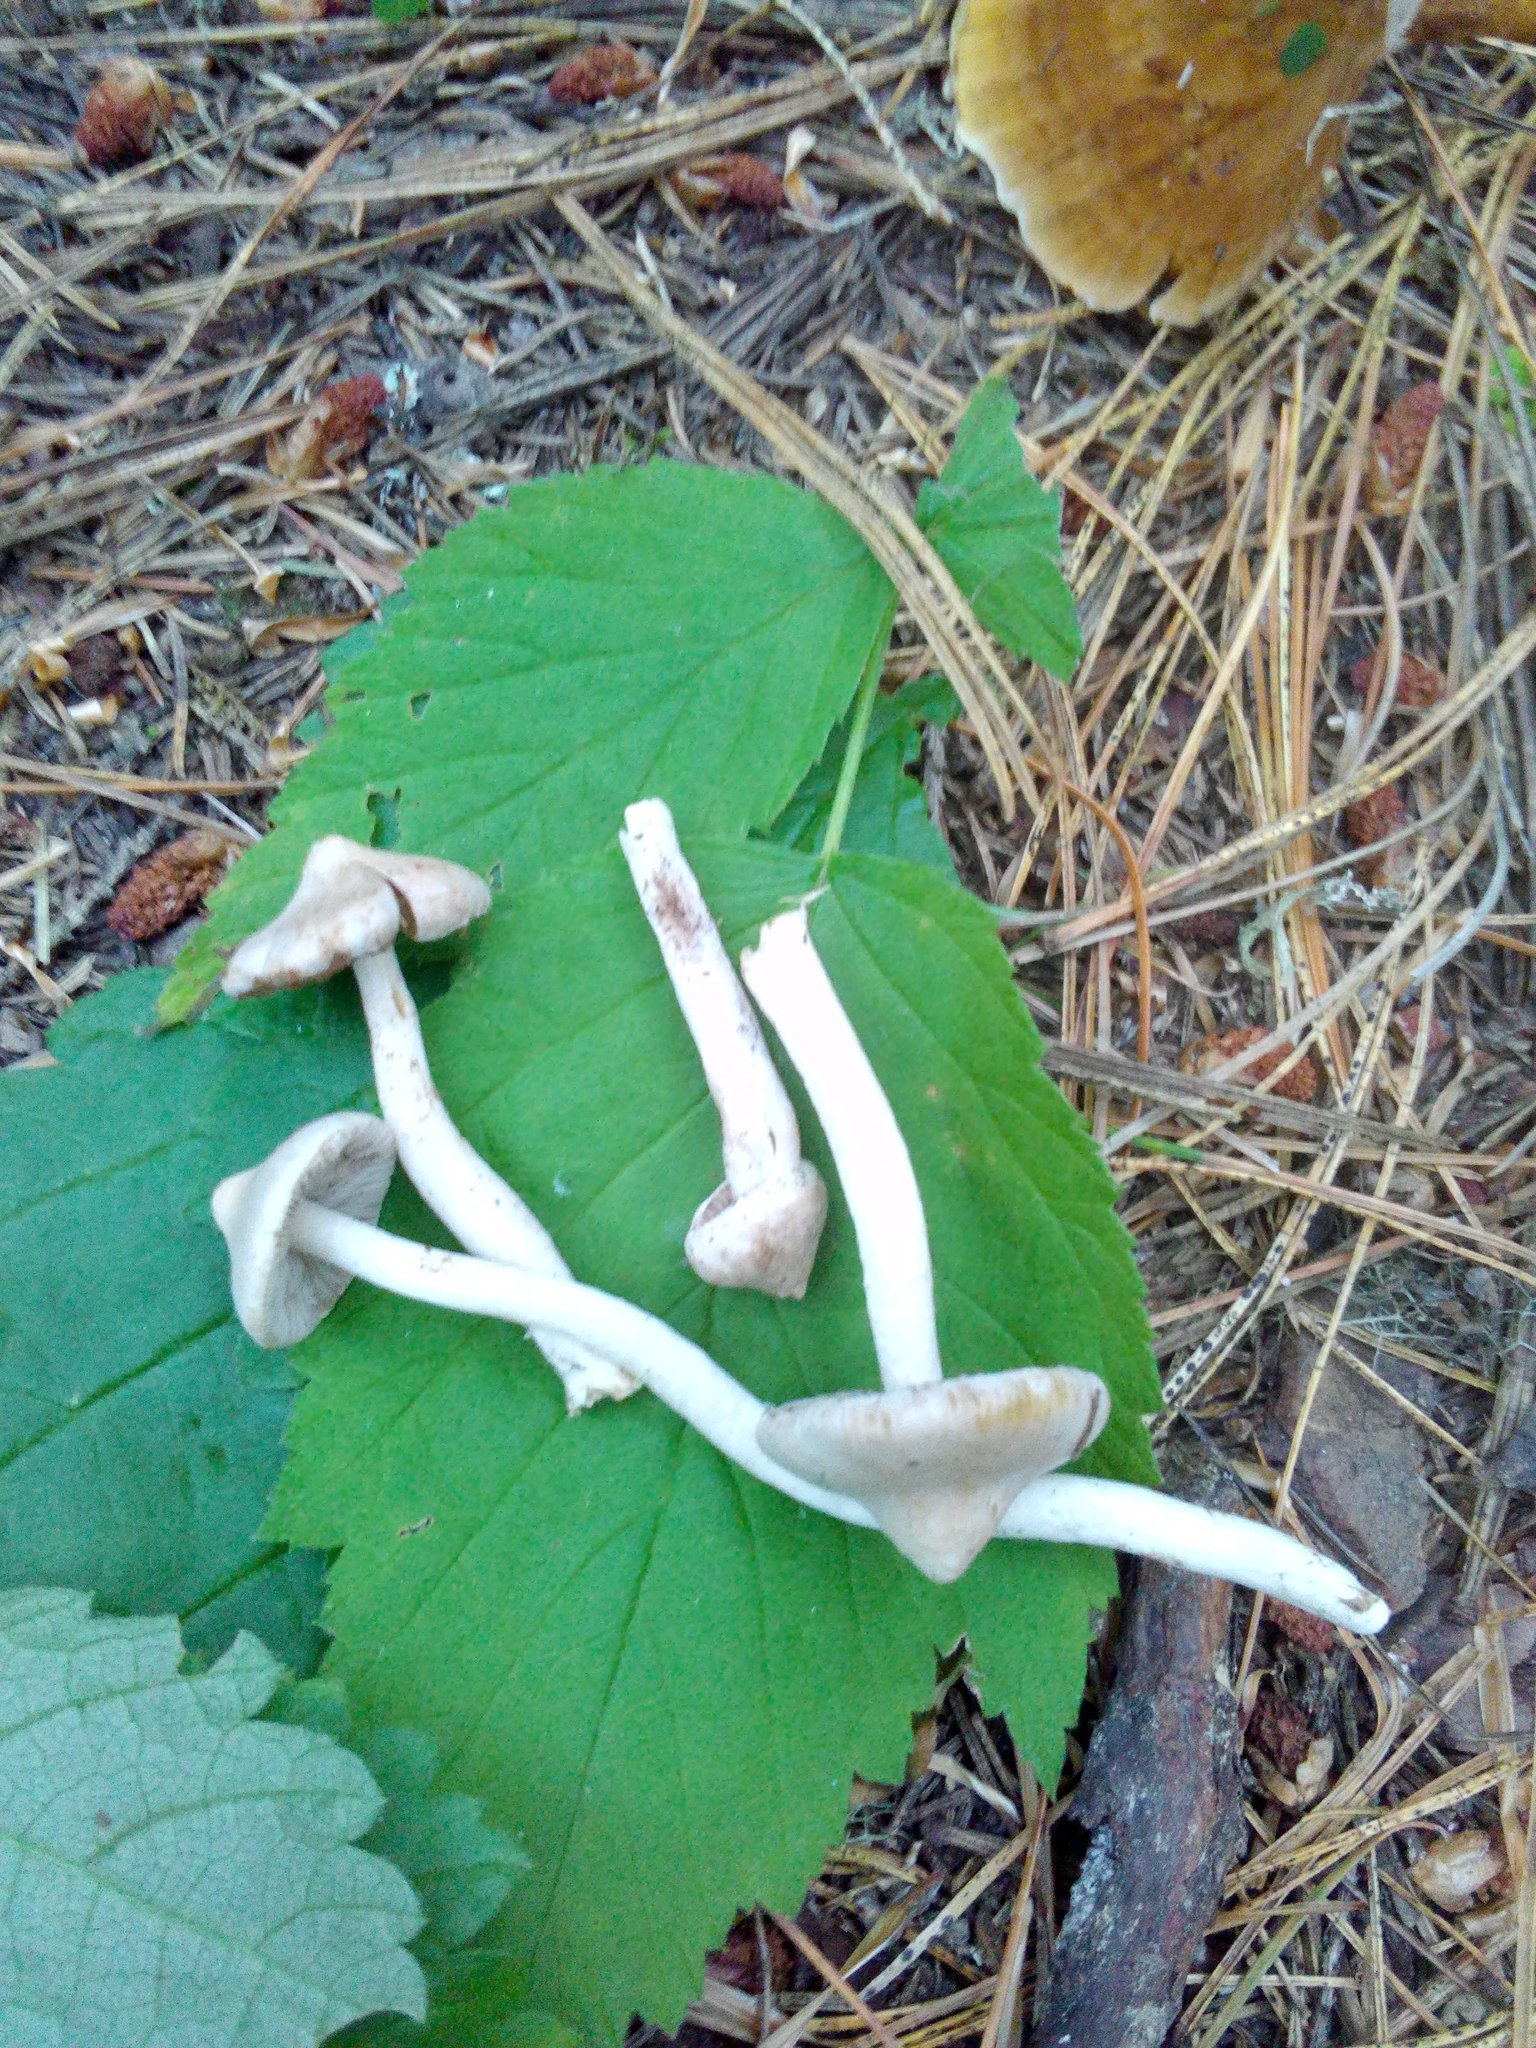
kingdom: Fungi
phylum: Basidiomycota
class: Agaricomycetes
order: Agaricales
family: Inocybaceae
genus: Inocybe
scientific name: Inocybe geophylla
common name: White fibrecap
